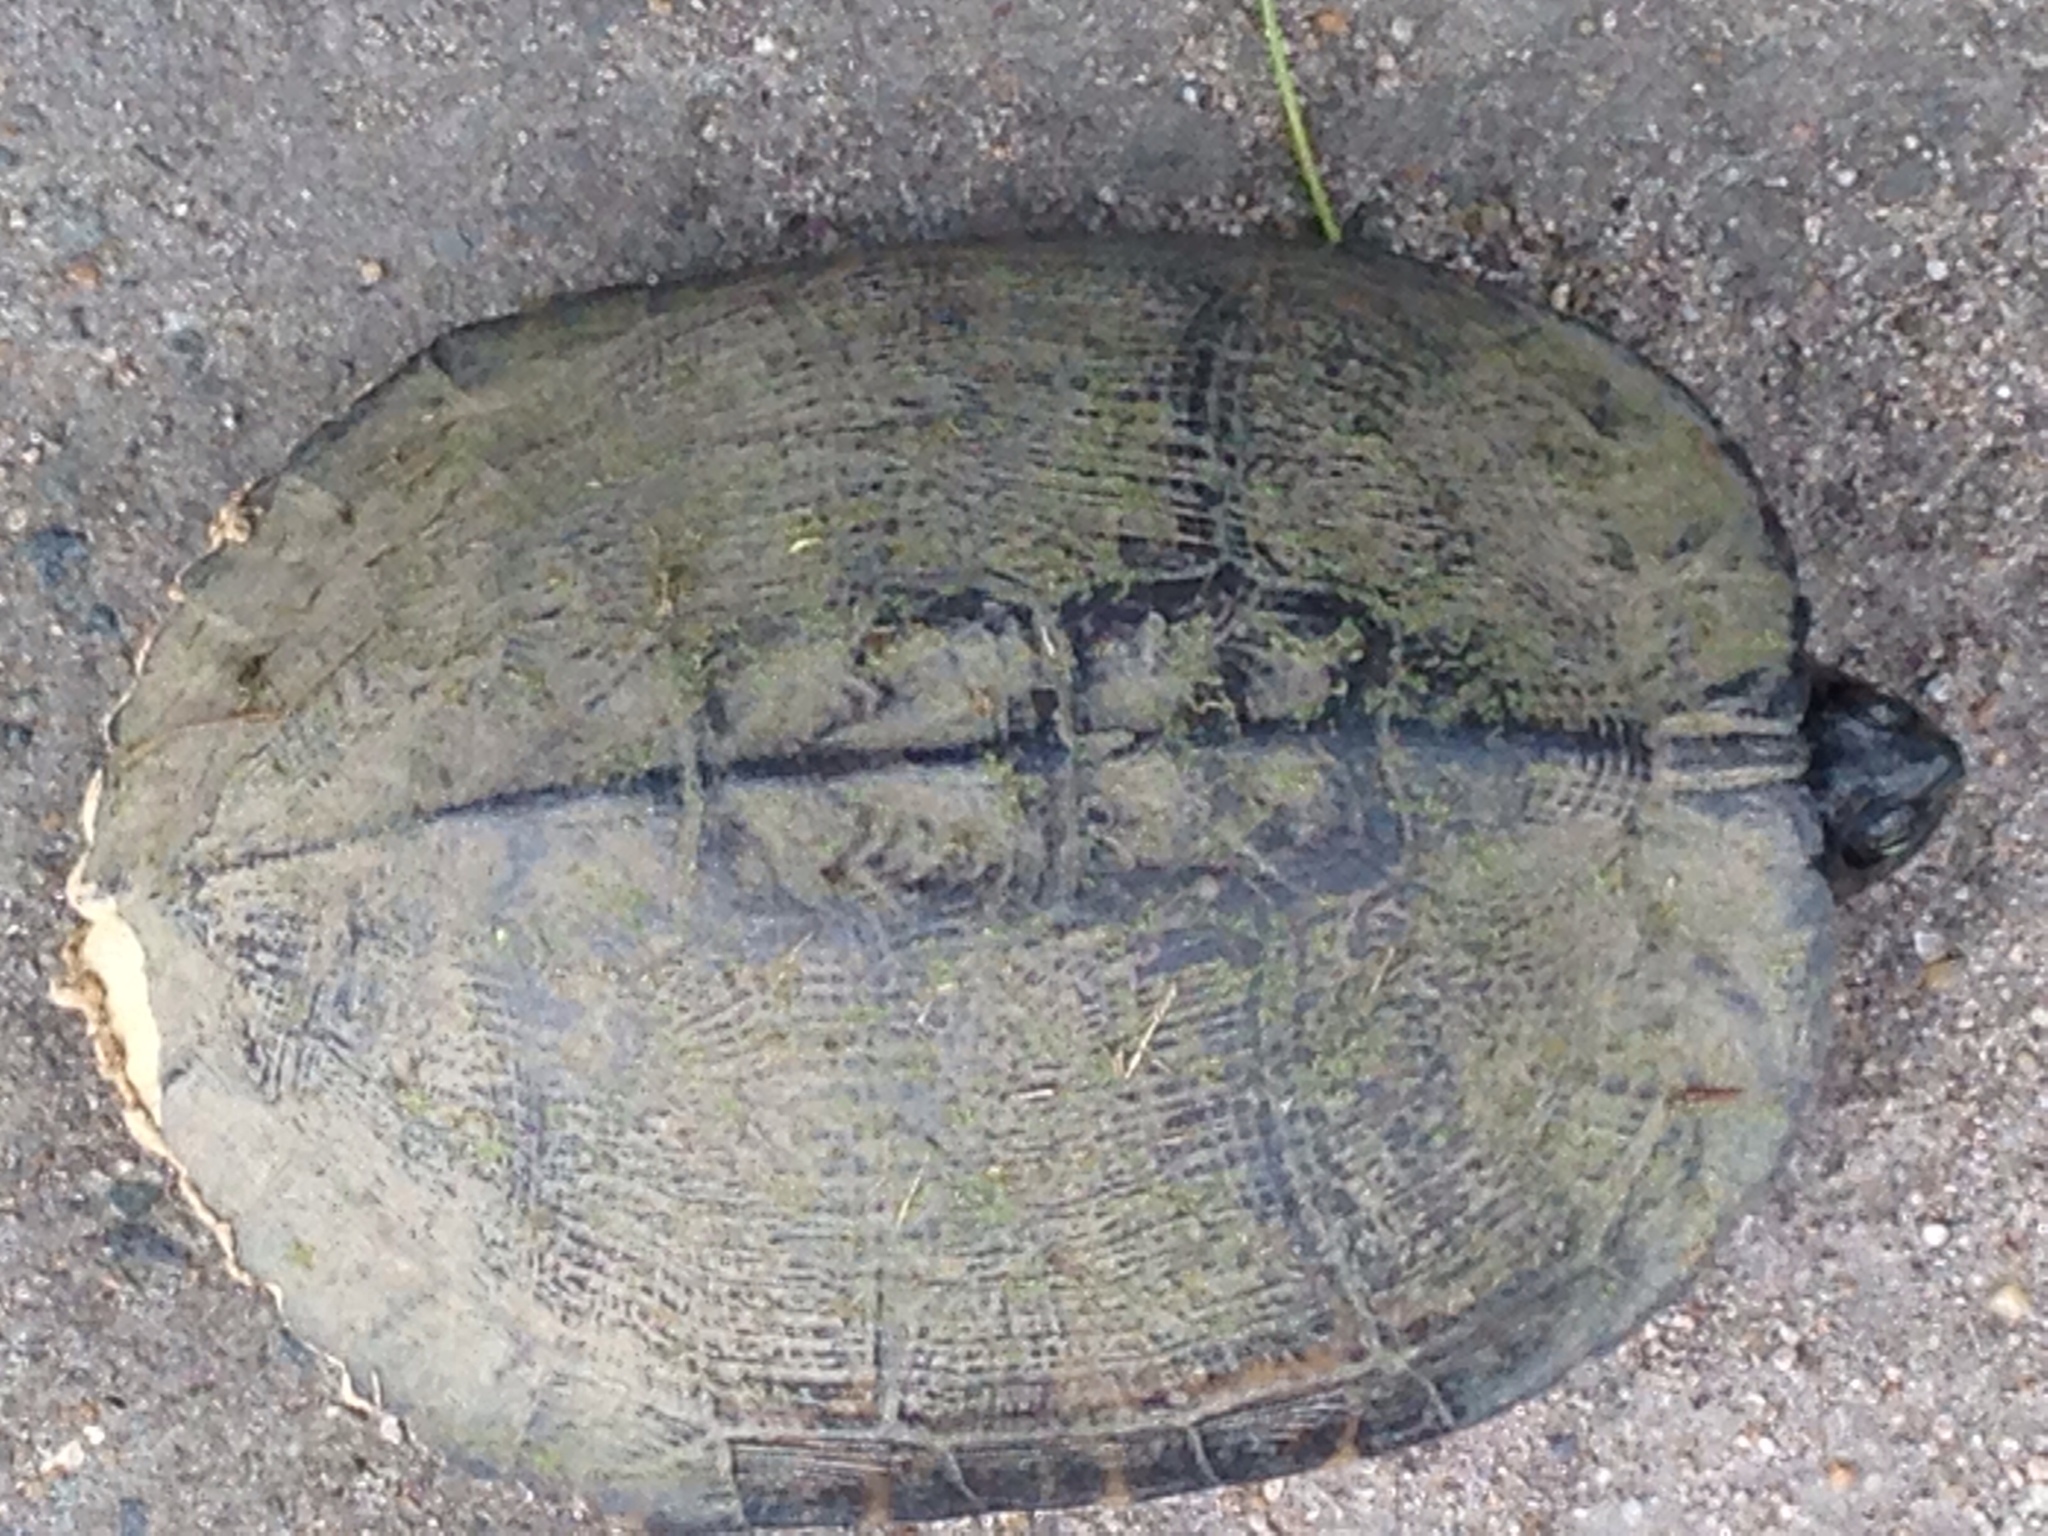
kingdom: Animalia
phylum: Chordata
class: Testudines
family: Emydidae
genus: Trachemys
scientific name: Trachemys scripta
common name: Slider
